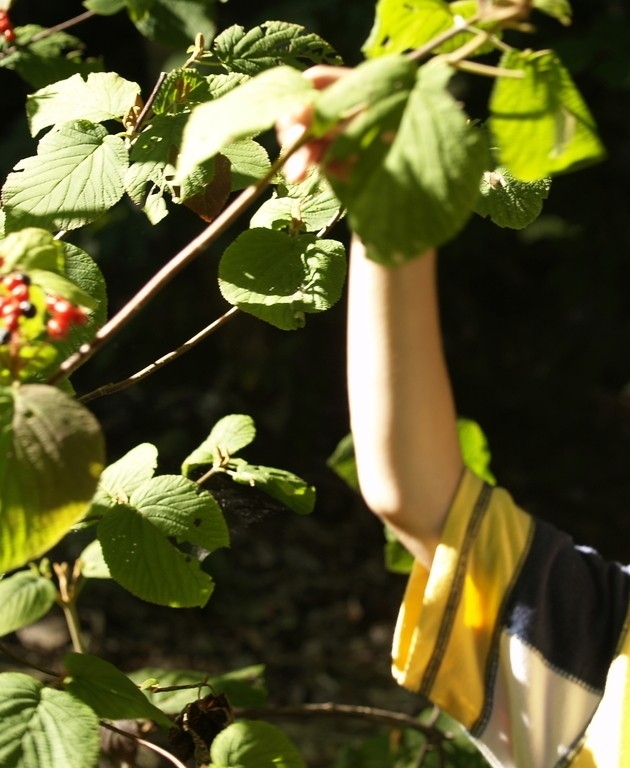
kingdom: Plantae
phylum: Tracheophyta
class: Magnoliopsida
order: Dipsacales
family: Viburnaceae
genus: Viburnum
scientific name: Viburnum lantanoides
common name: Hobblebush
